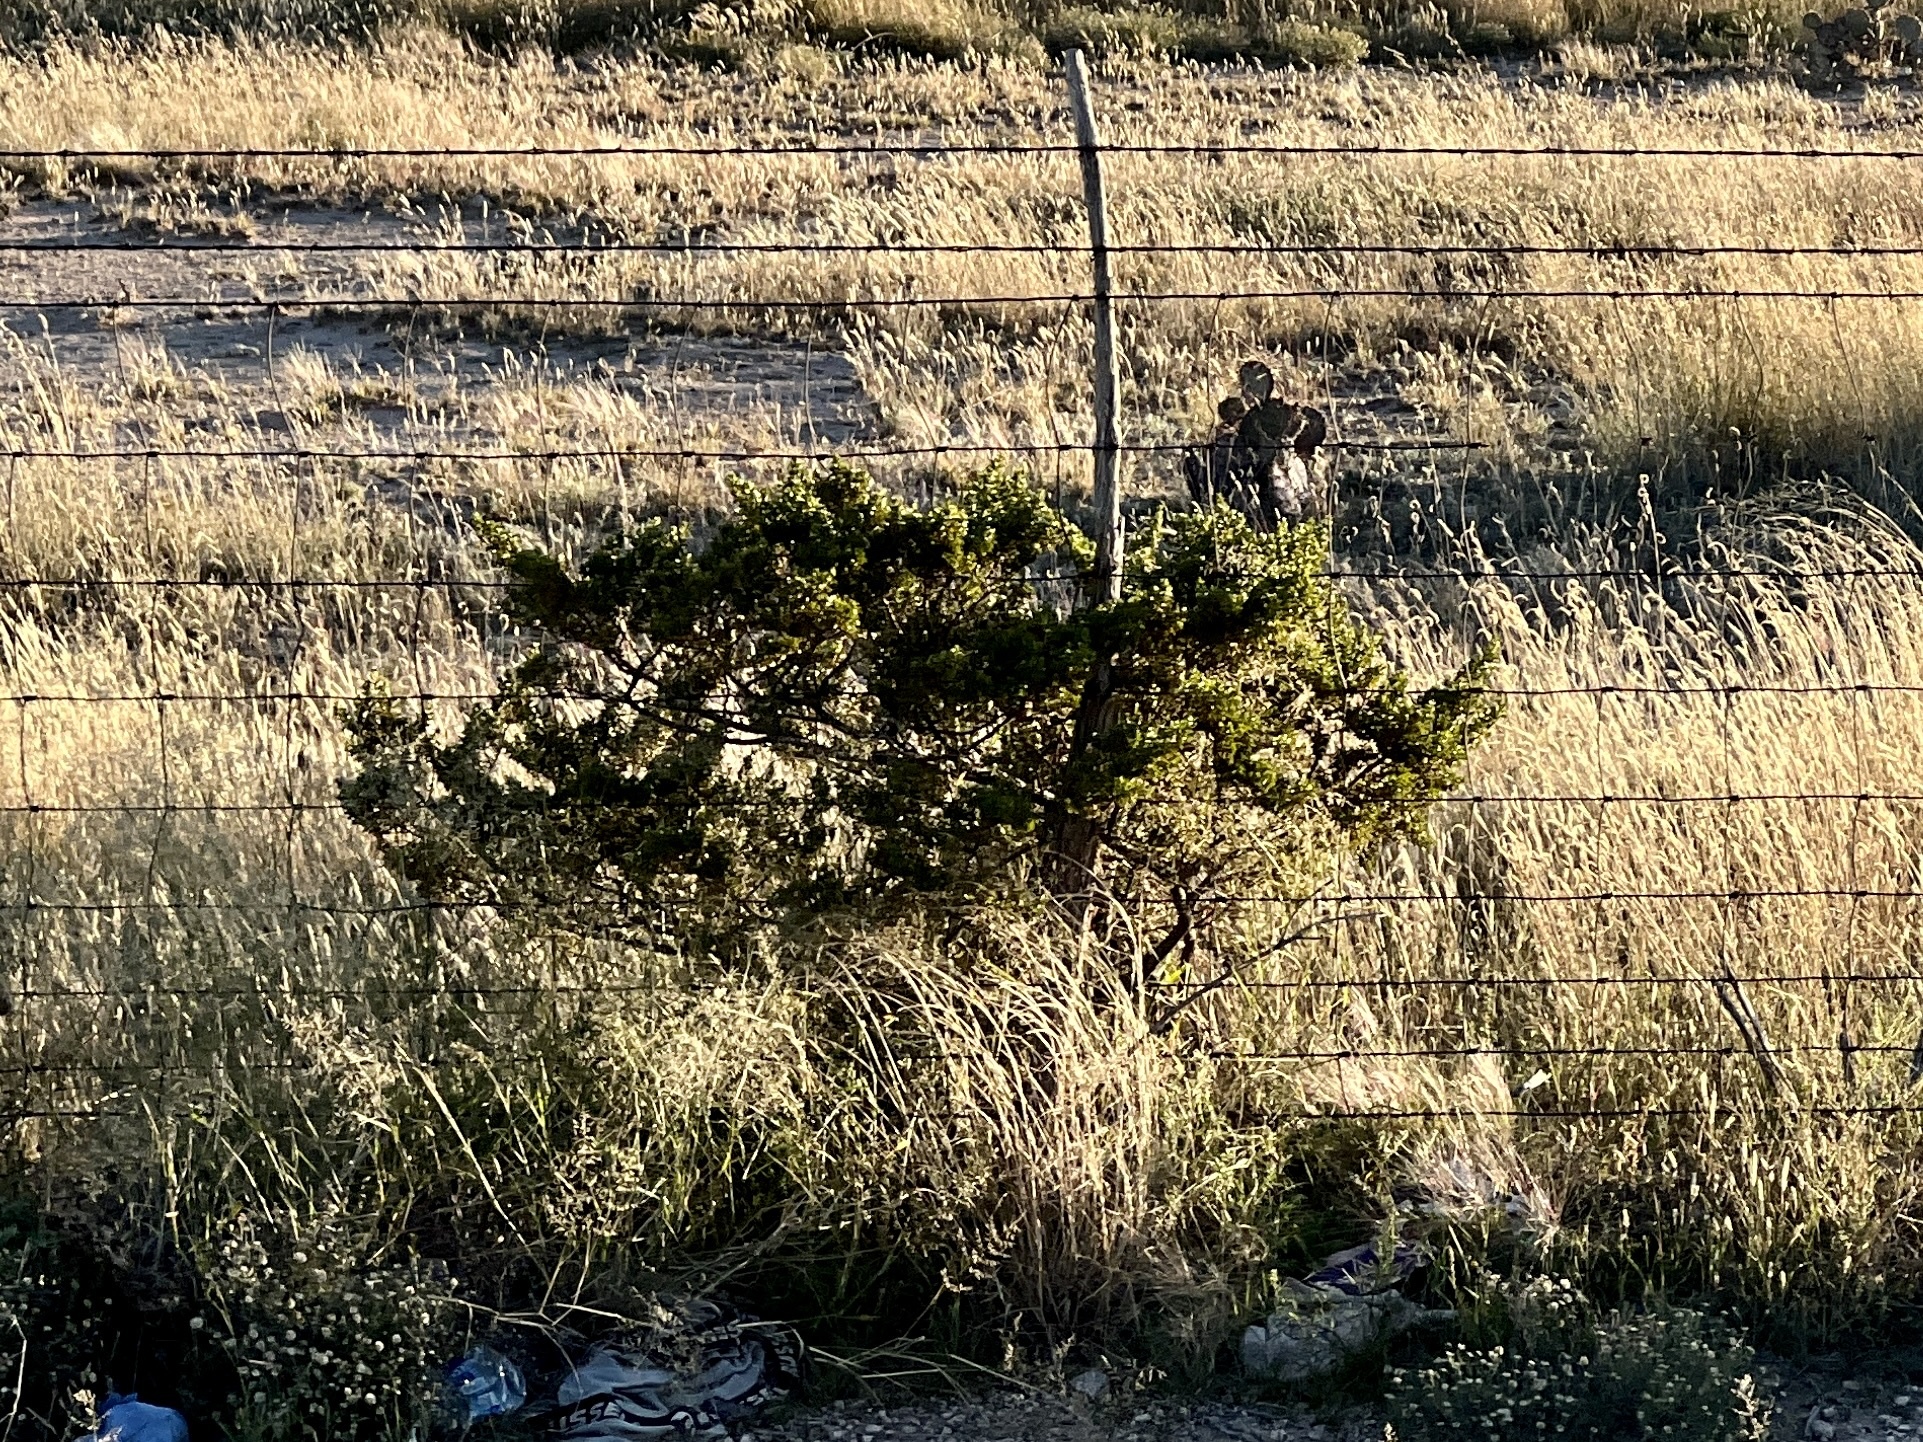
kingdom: Plantae
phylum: Tracheophyta
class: Magnoliopsida
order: Zygophyllales
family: Zygophyllaceae
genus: Larrea
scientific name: Larrea tridentata
